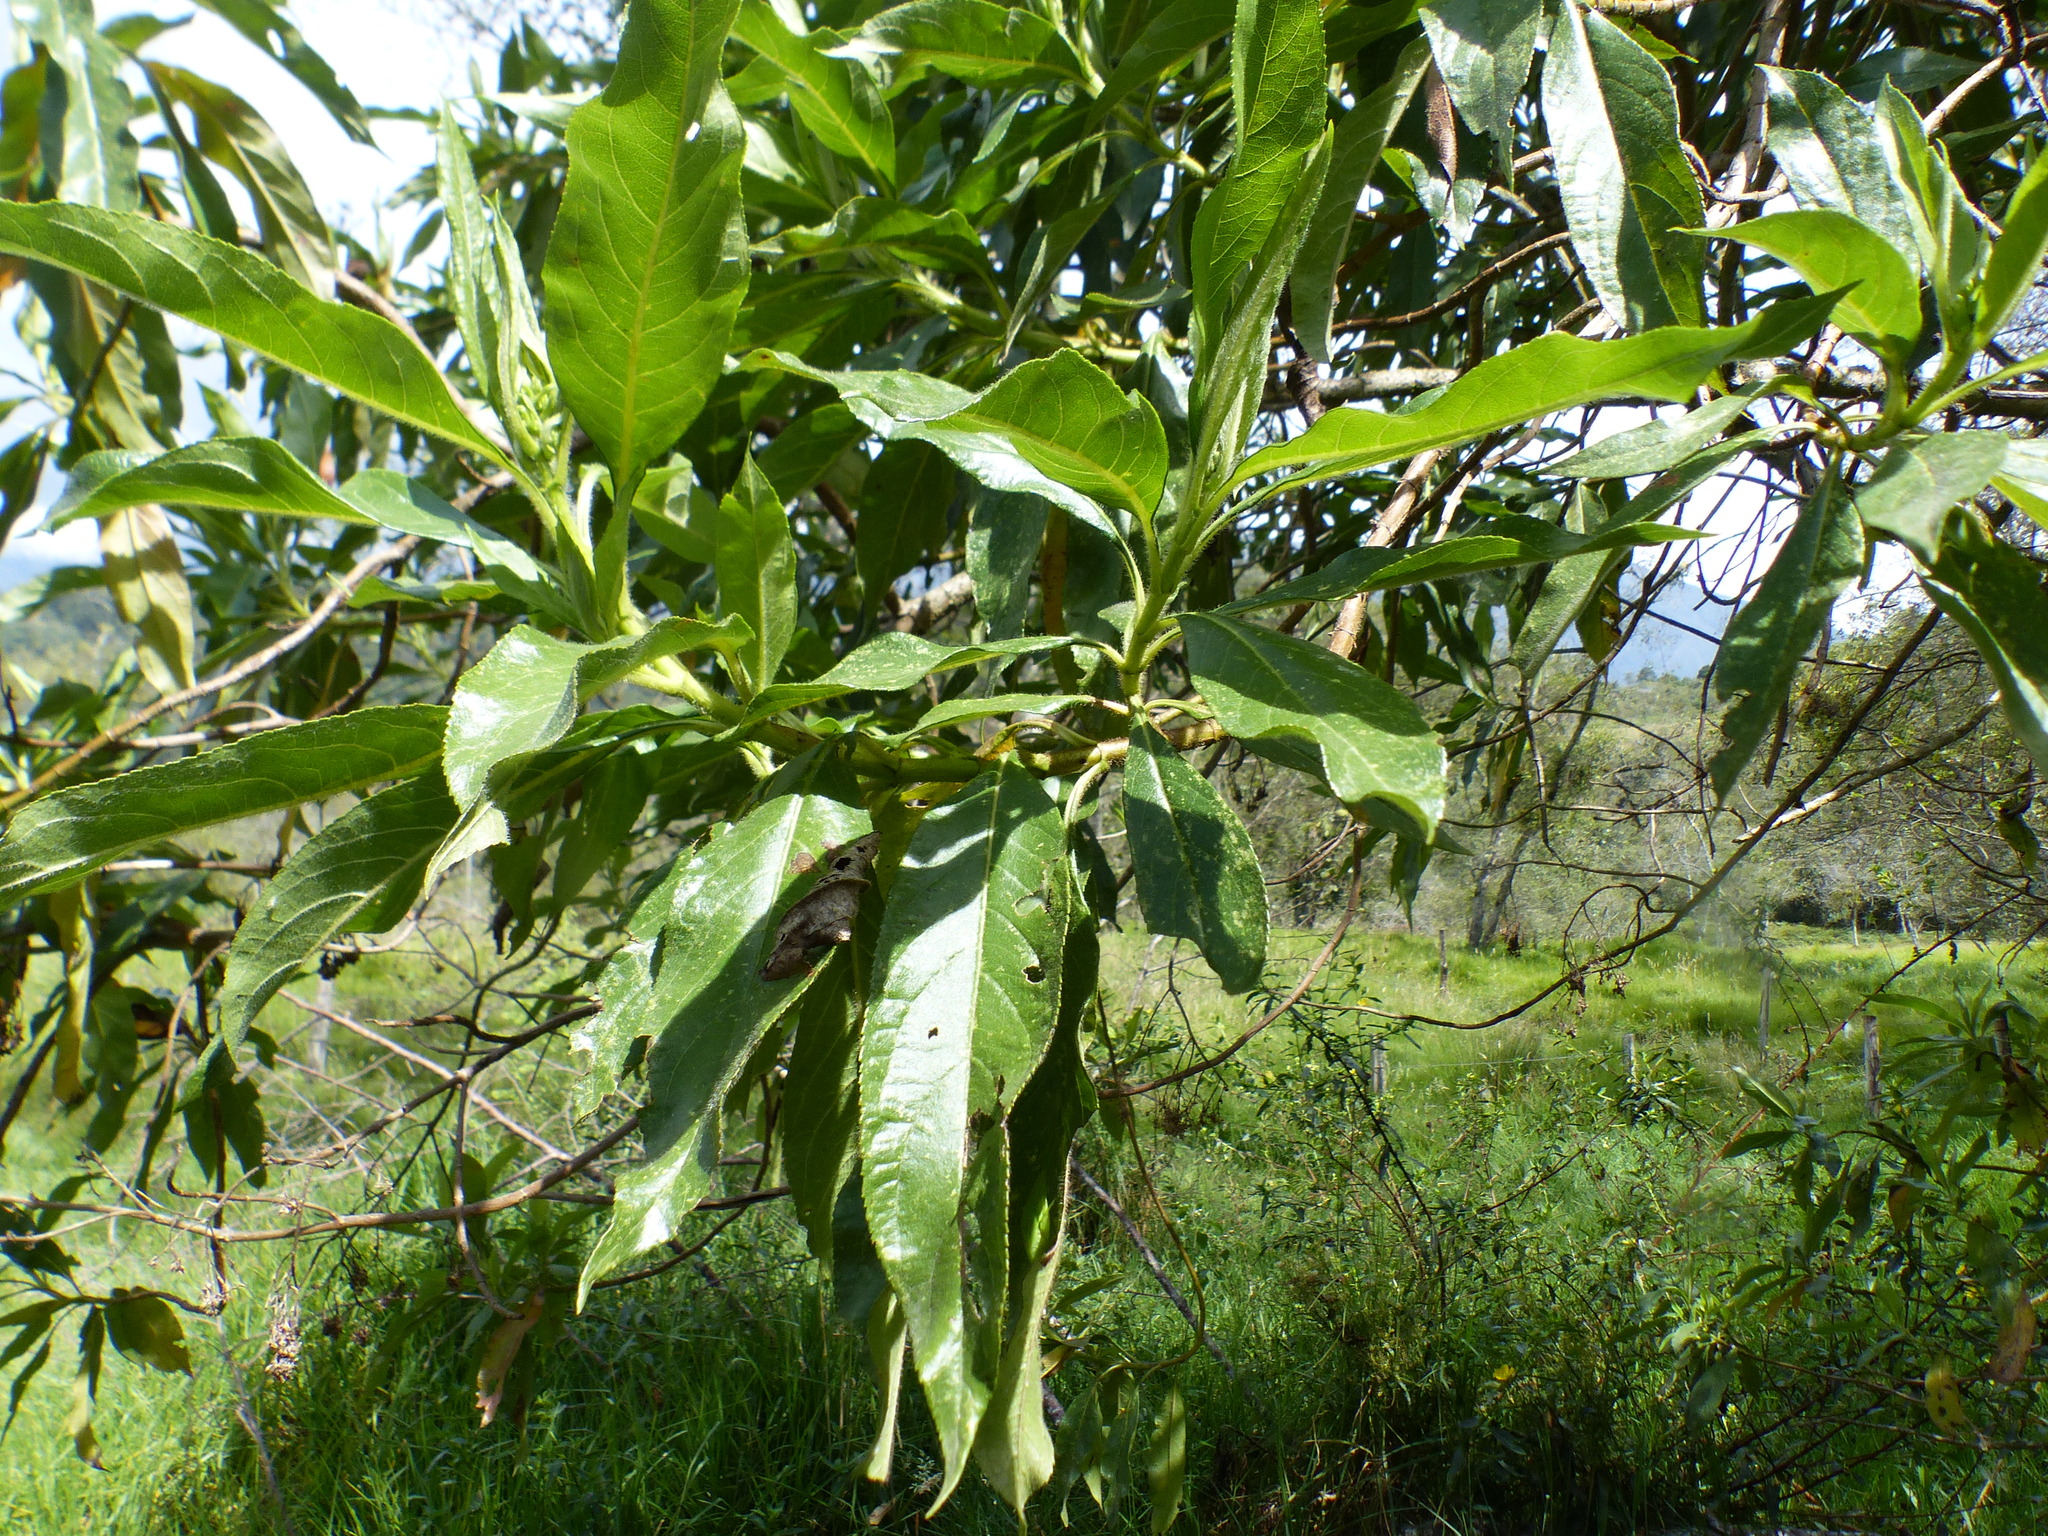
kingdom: Plantae
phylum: Tracheophyta
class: Magnoliopsida
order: Escalloniales
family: Escalloniaceae
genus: Escallonia
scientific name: Escallonia pendula
